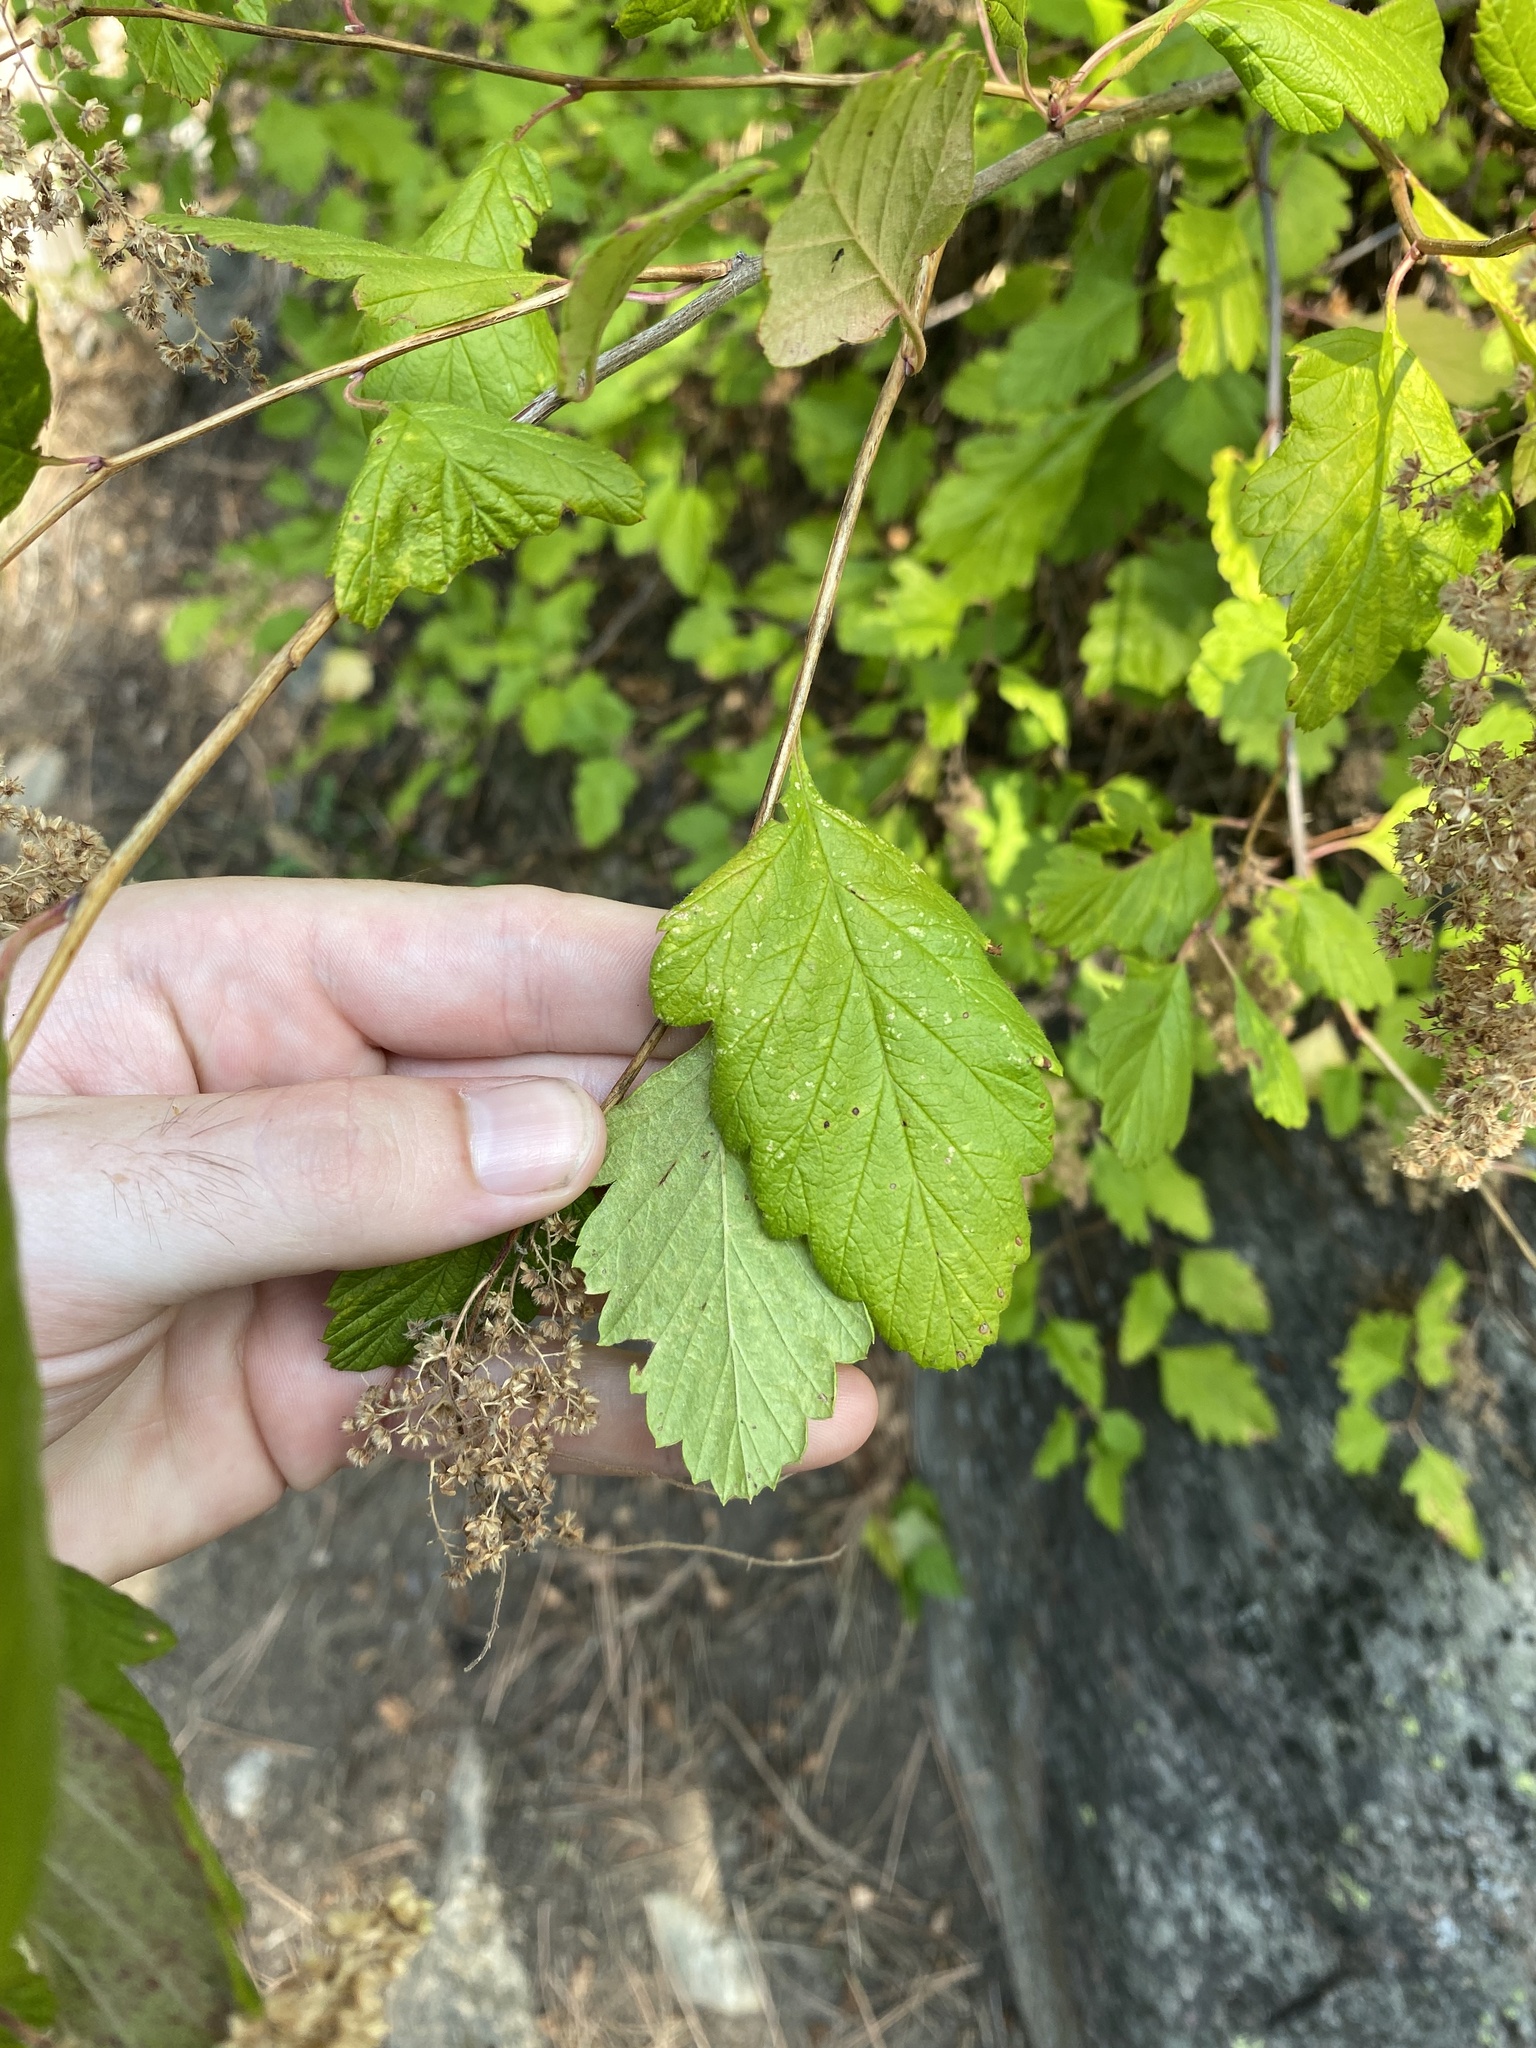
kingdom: Plantae
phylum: Tracheophyta
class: Magnoliopsida
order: Rosales
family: Rosaceae
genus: Holodiscus
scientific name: Holodiscus discolor
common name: Oceanspray
